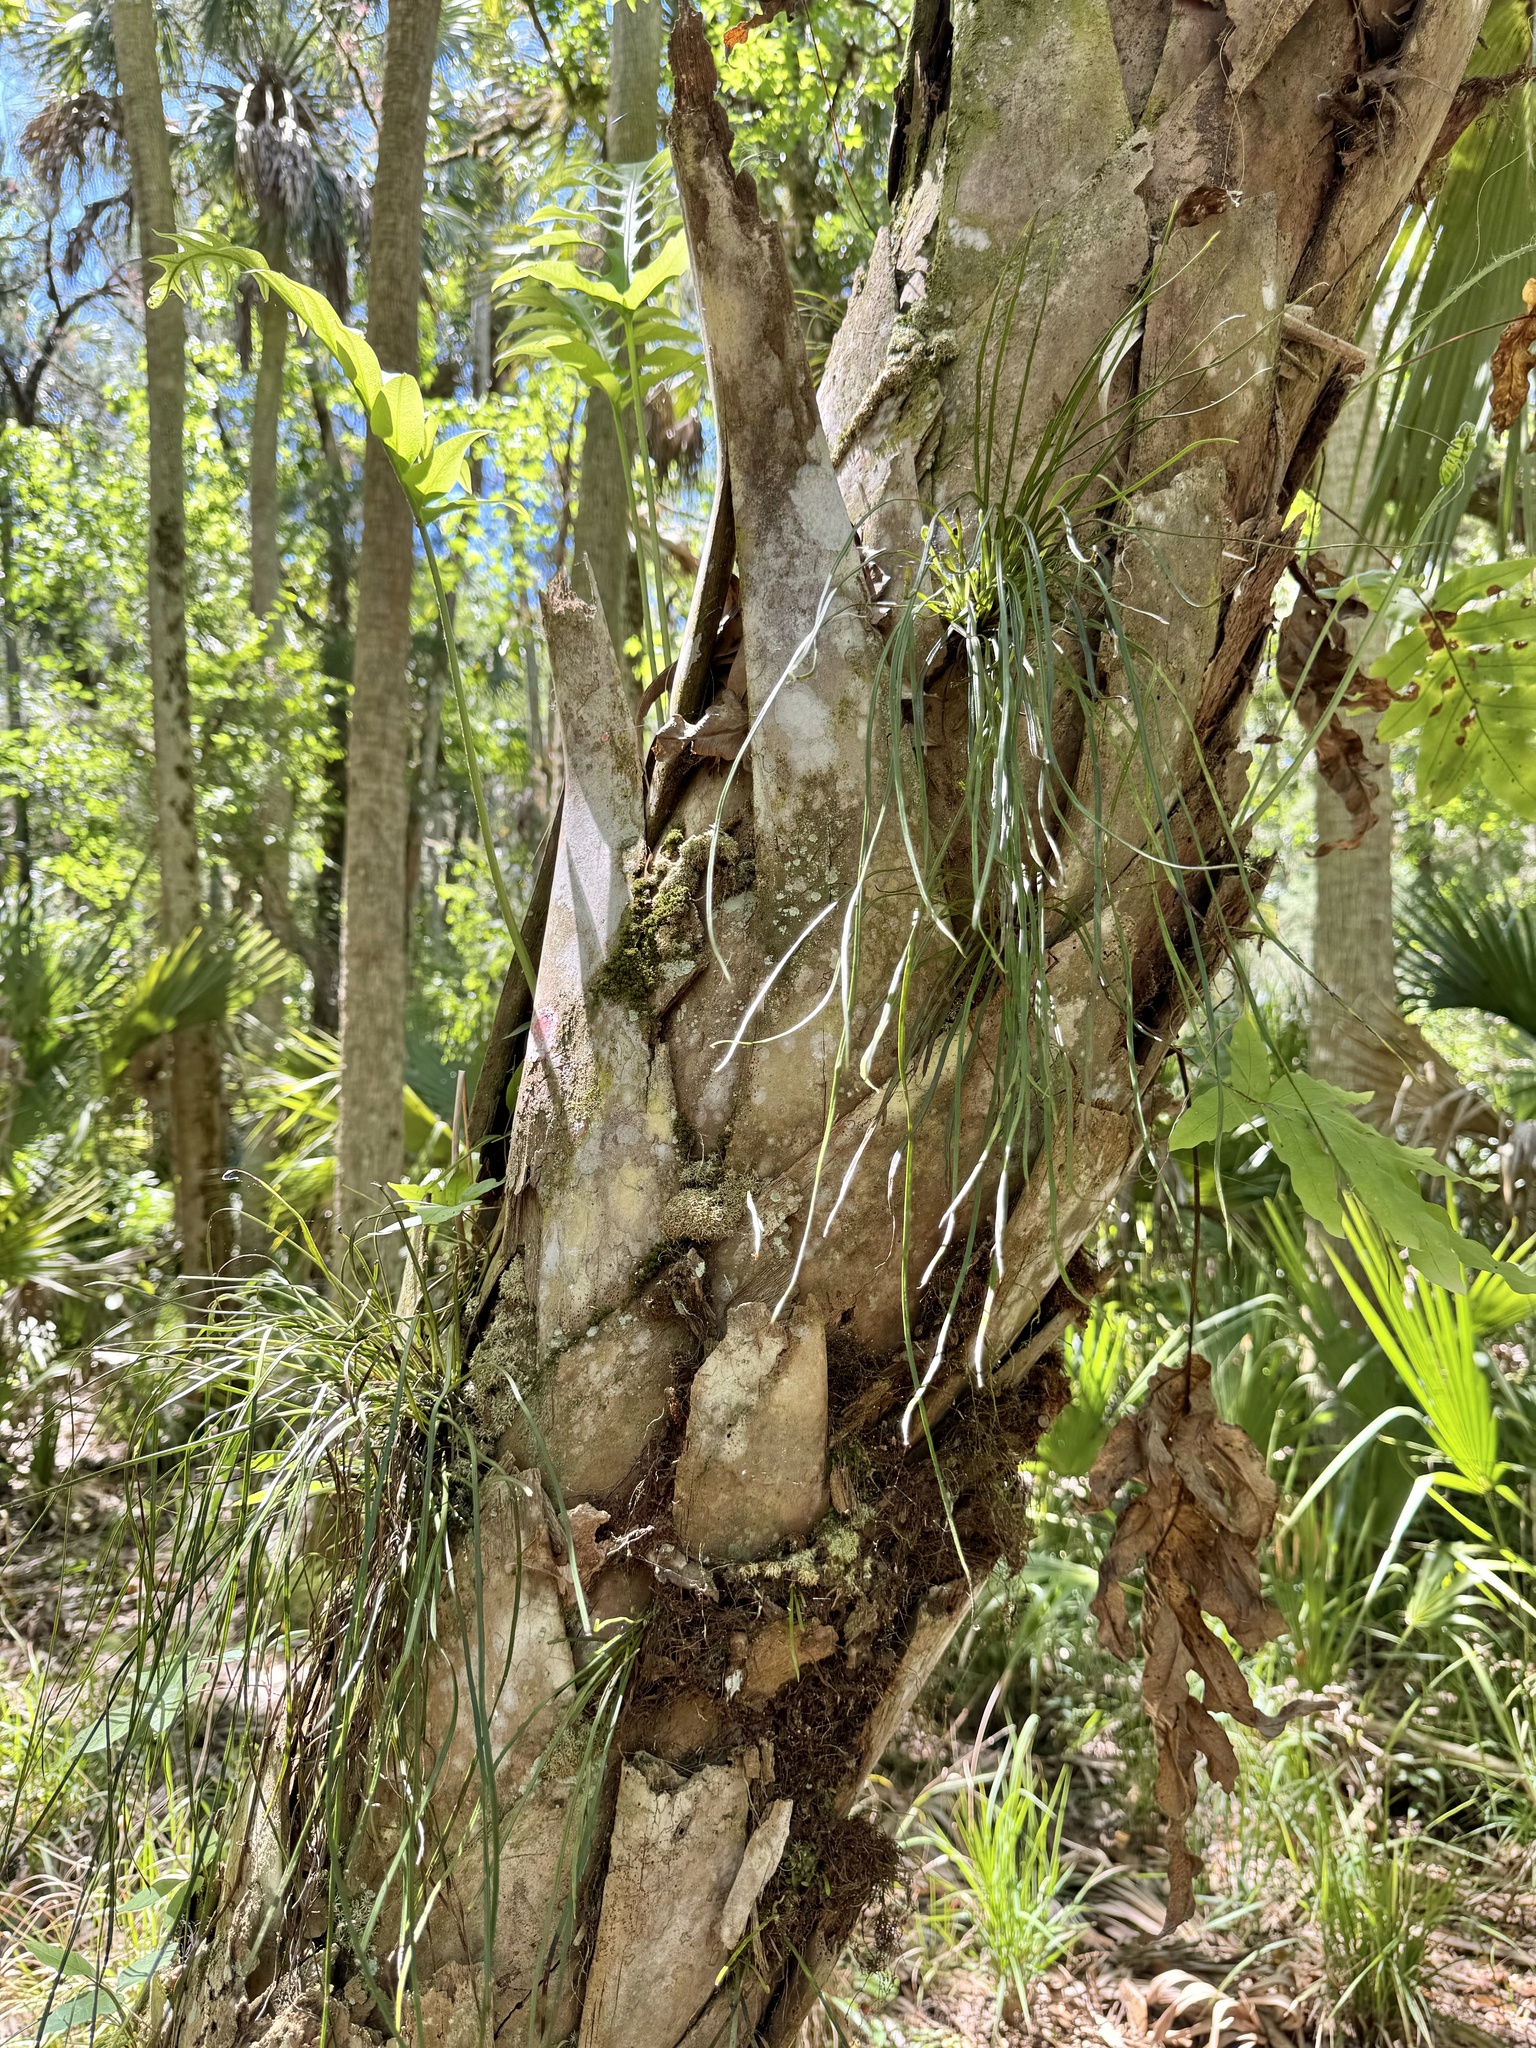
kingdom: Plantae
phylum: Tracheophyta
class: Polypodiopsida
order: Polypodiales
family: Pteridaceae
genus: Vittaria
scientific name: Vittaria lineata
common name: Shoestring fern
